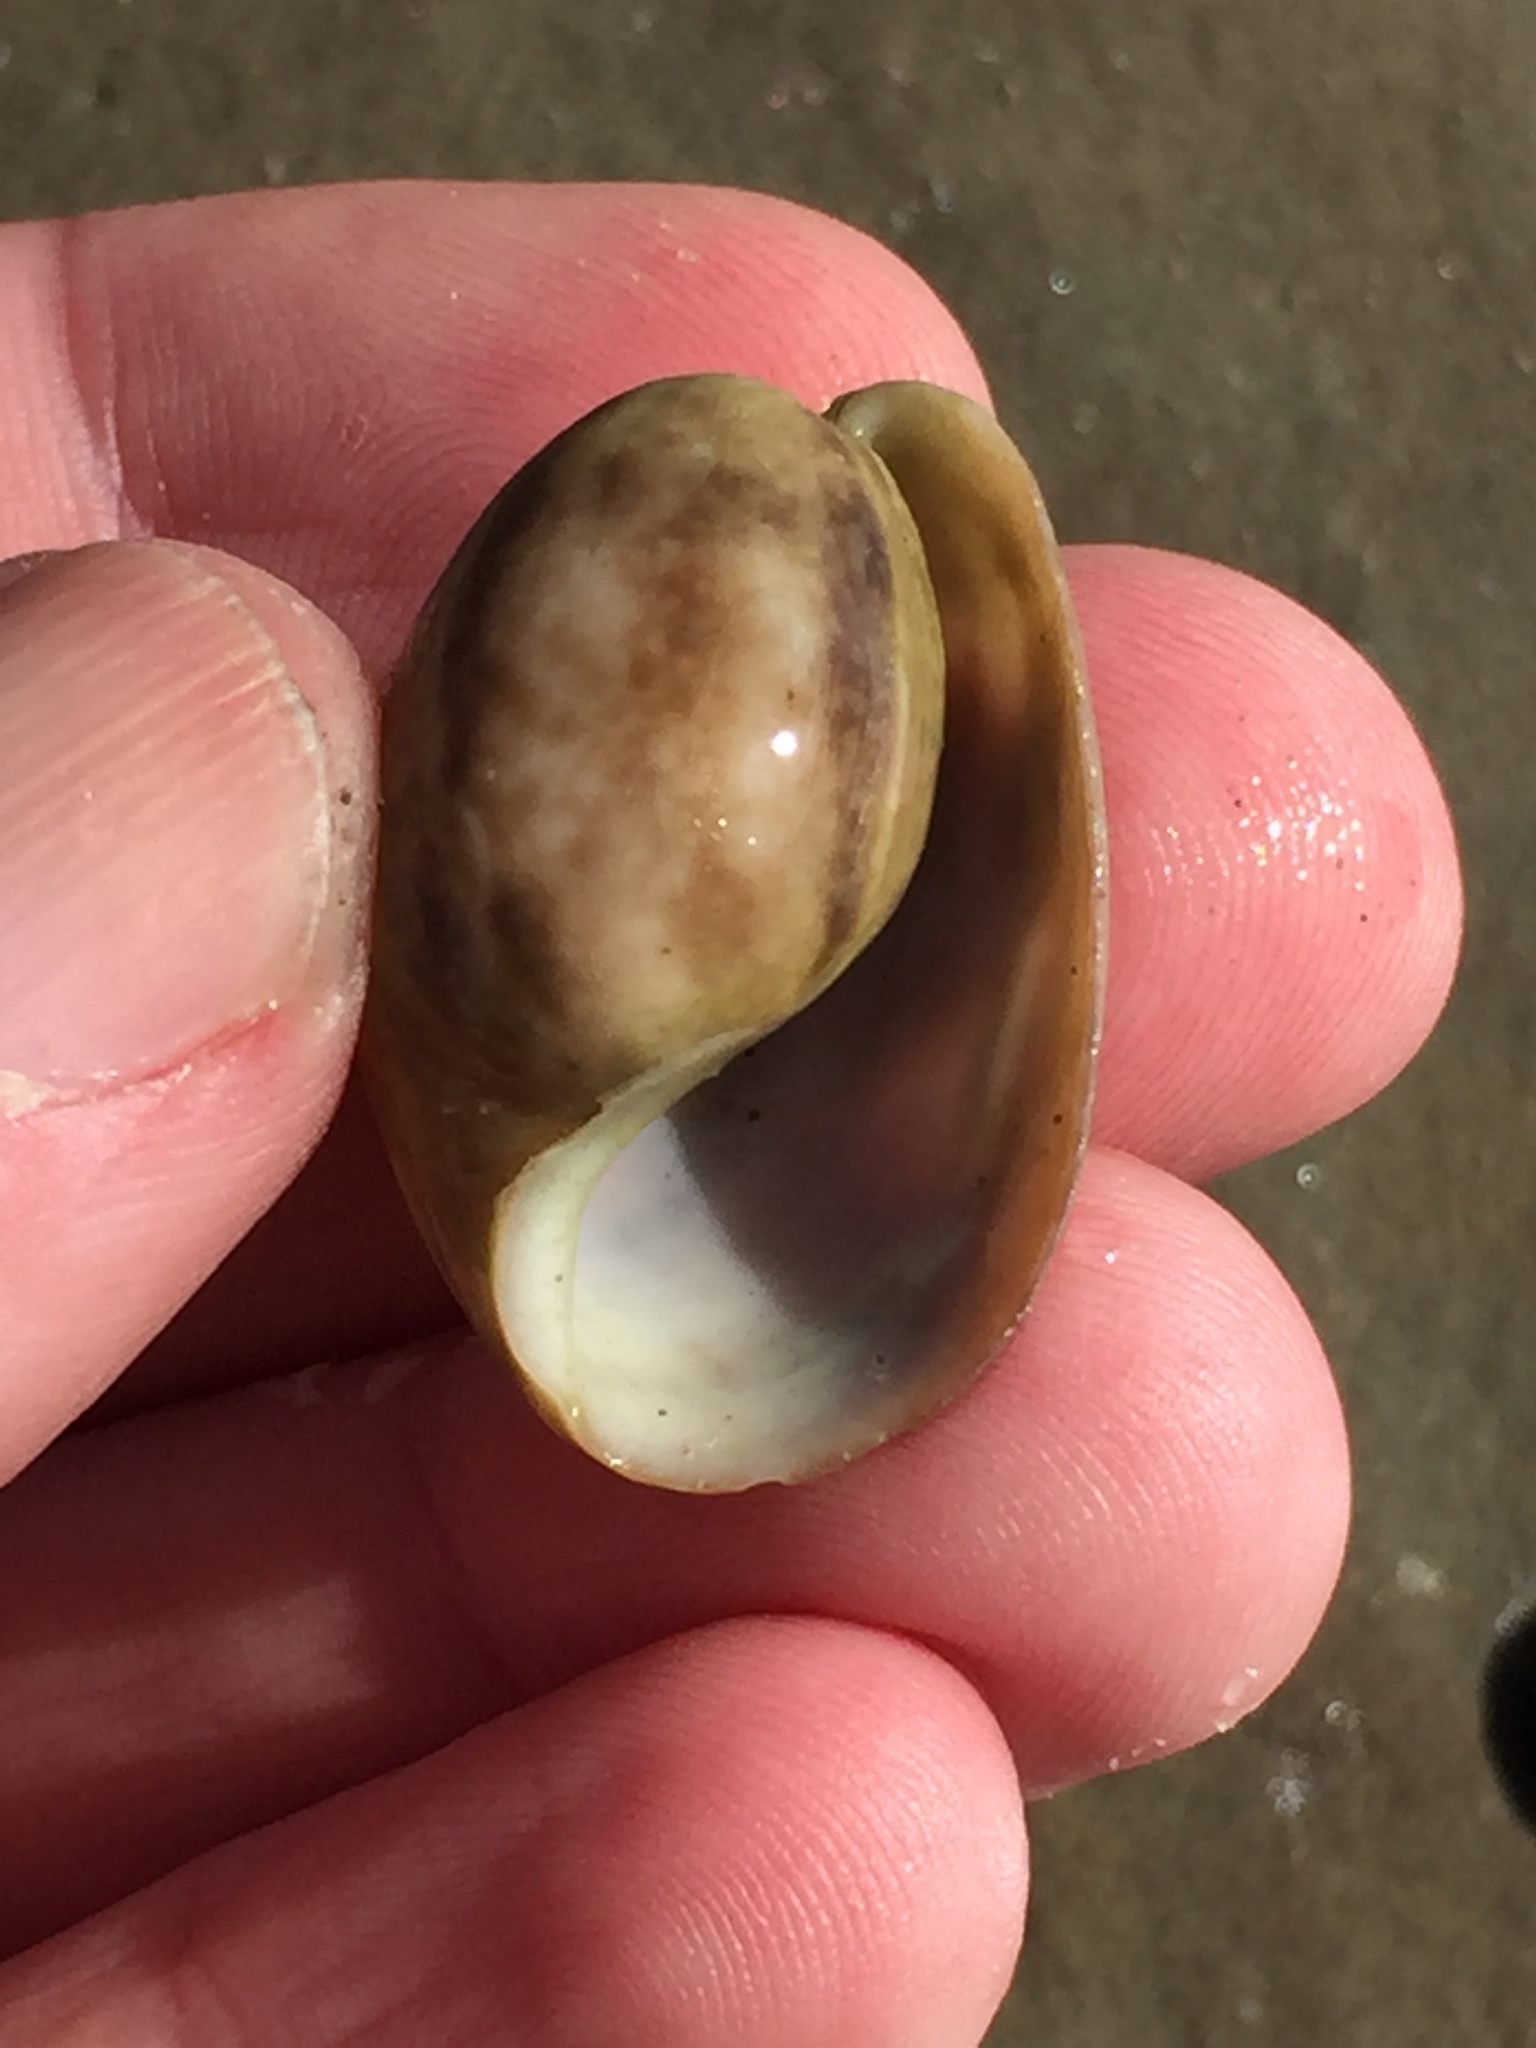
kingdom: Animalia
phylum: Mollusca
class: Gastropoda
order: Cephalaspidea
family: Bullidae
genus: Bulla
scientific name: Bulla quoyii
